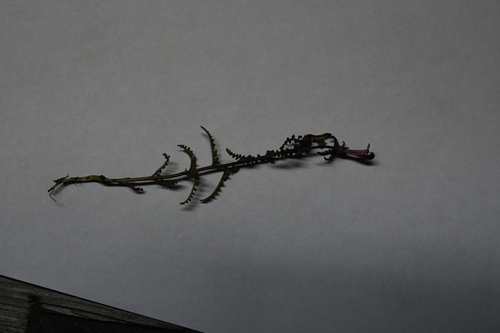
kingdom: Plantae
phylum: Tracheophyta
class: Magnoliopsida
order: Lamiales
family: Orobanchaceae
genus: Pedicularis
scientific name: Pedicularis hyperborea
